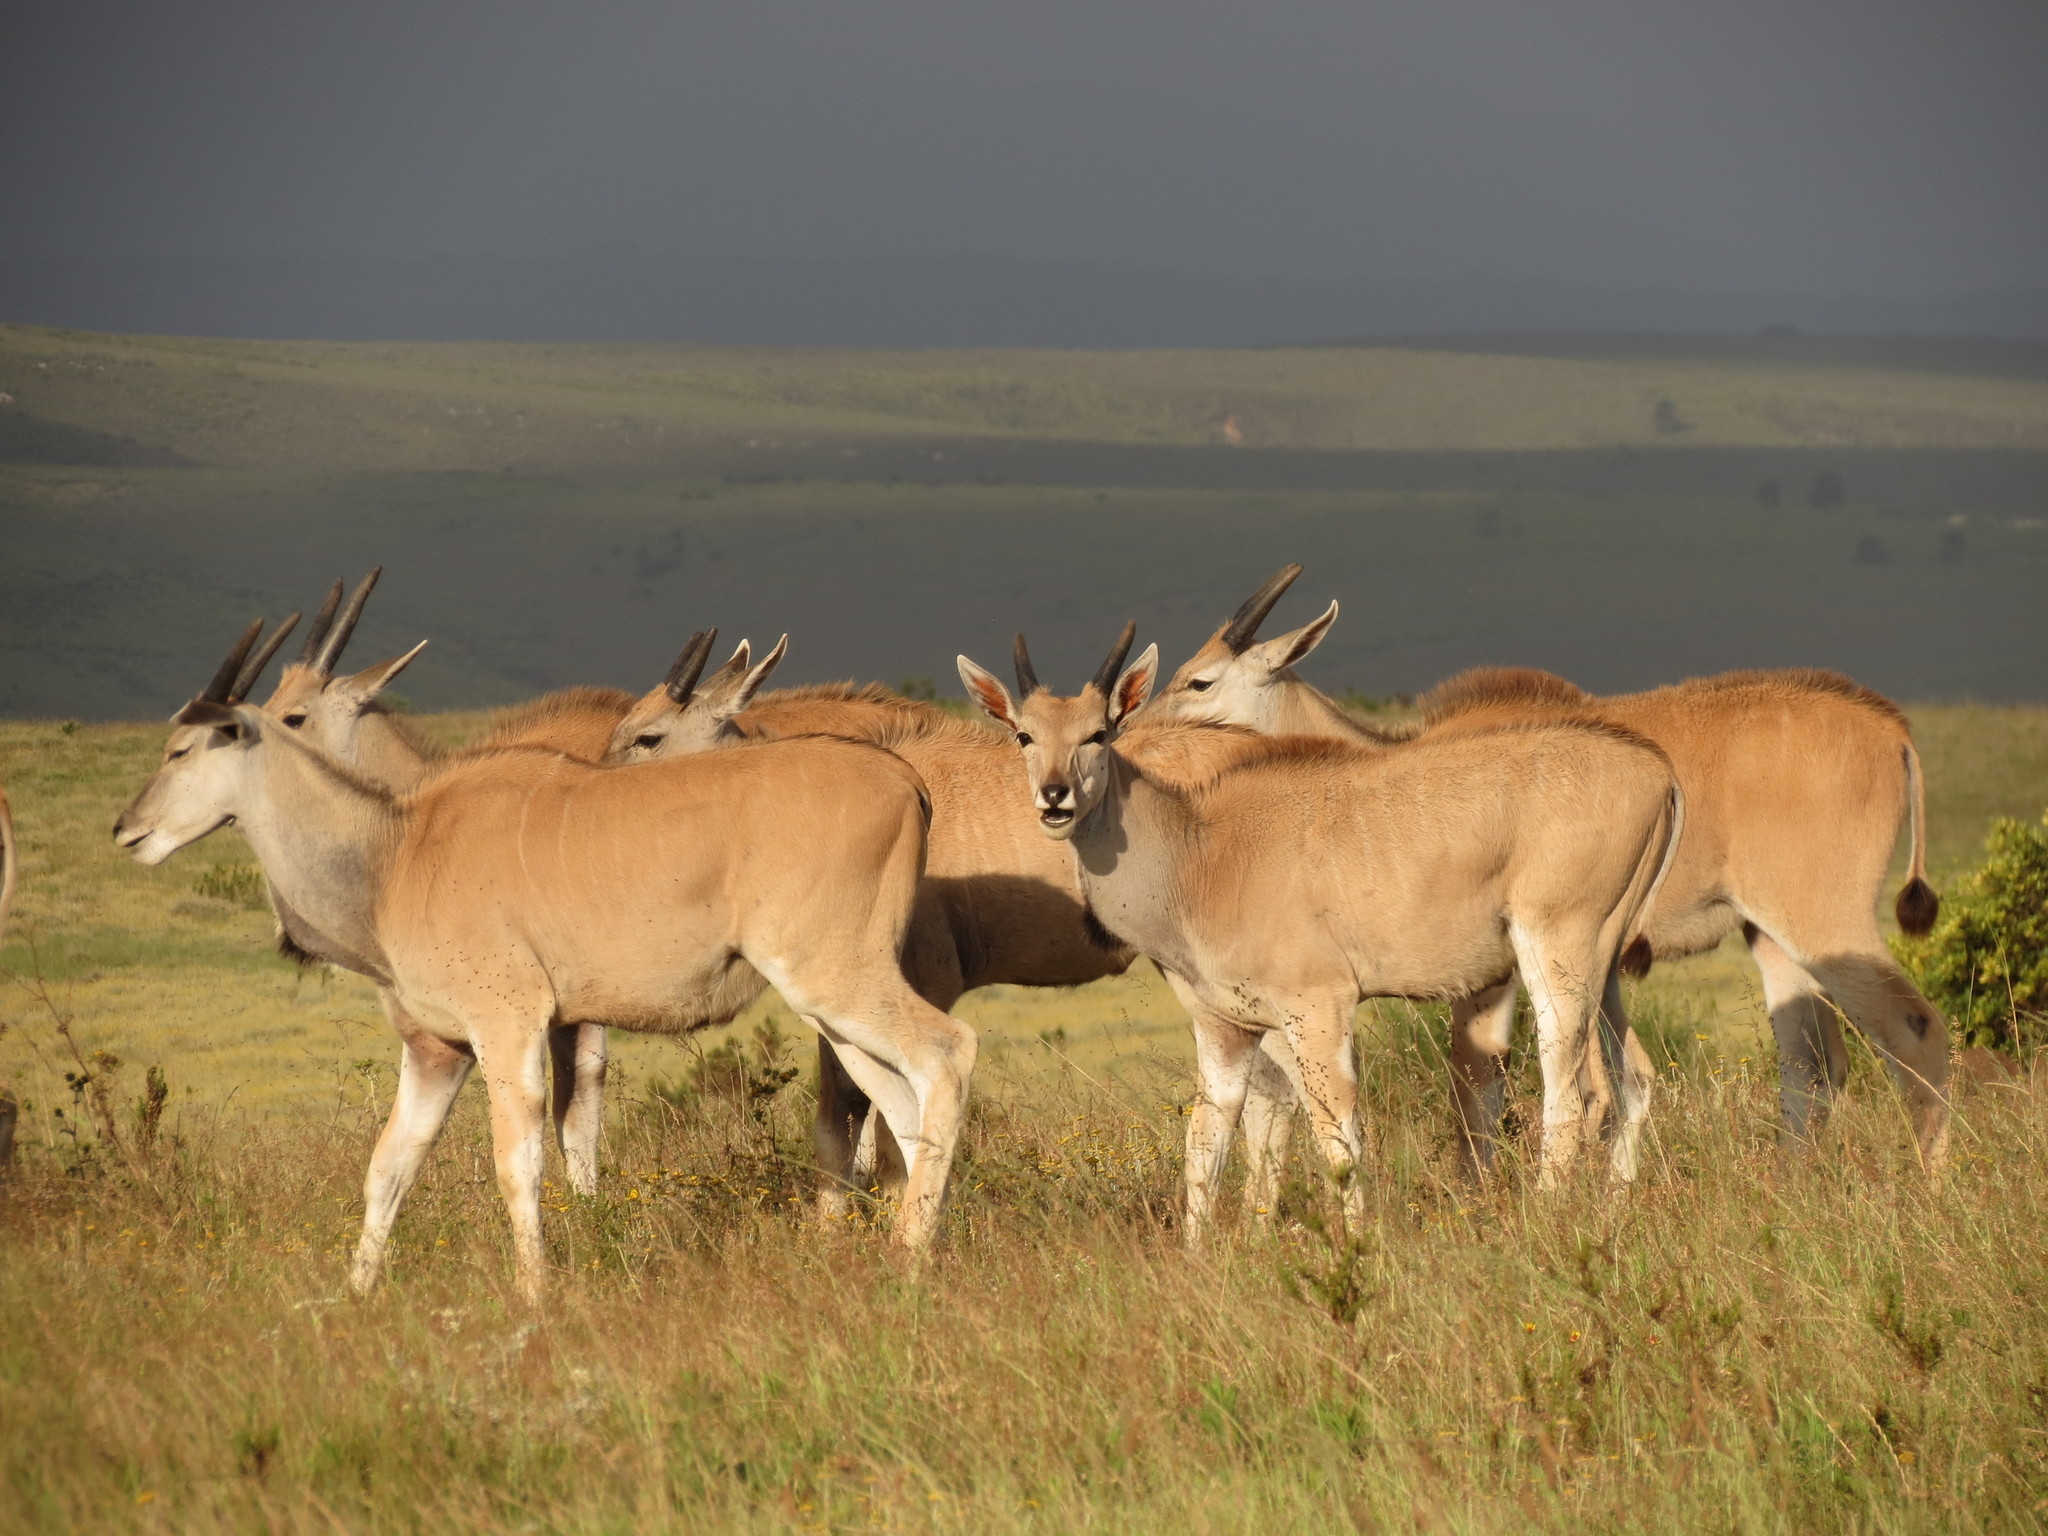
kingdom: Animalia
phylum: Chordata
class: Mammalia
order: Artiodactyla
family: Bovidae
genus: Taurotragus
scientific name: Taurotragus oryx
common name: Common eland
